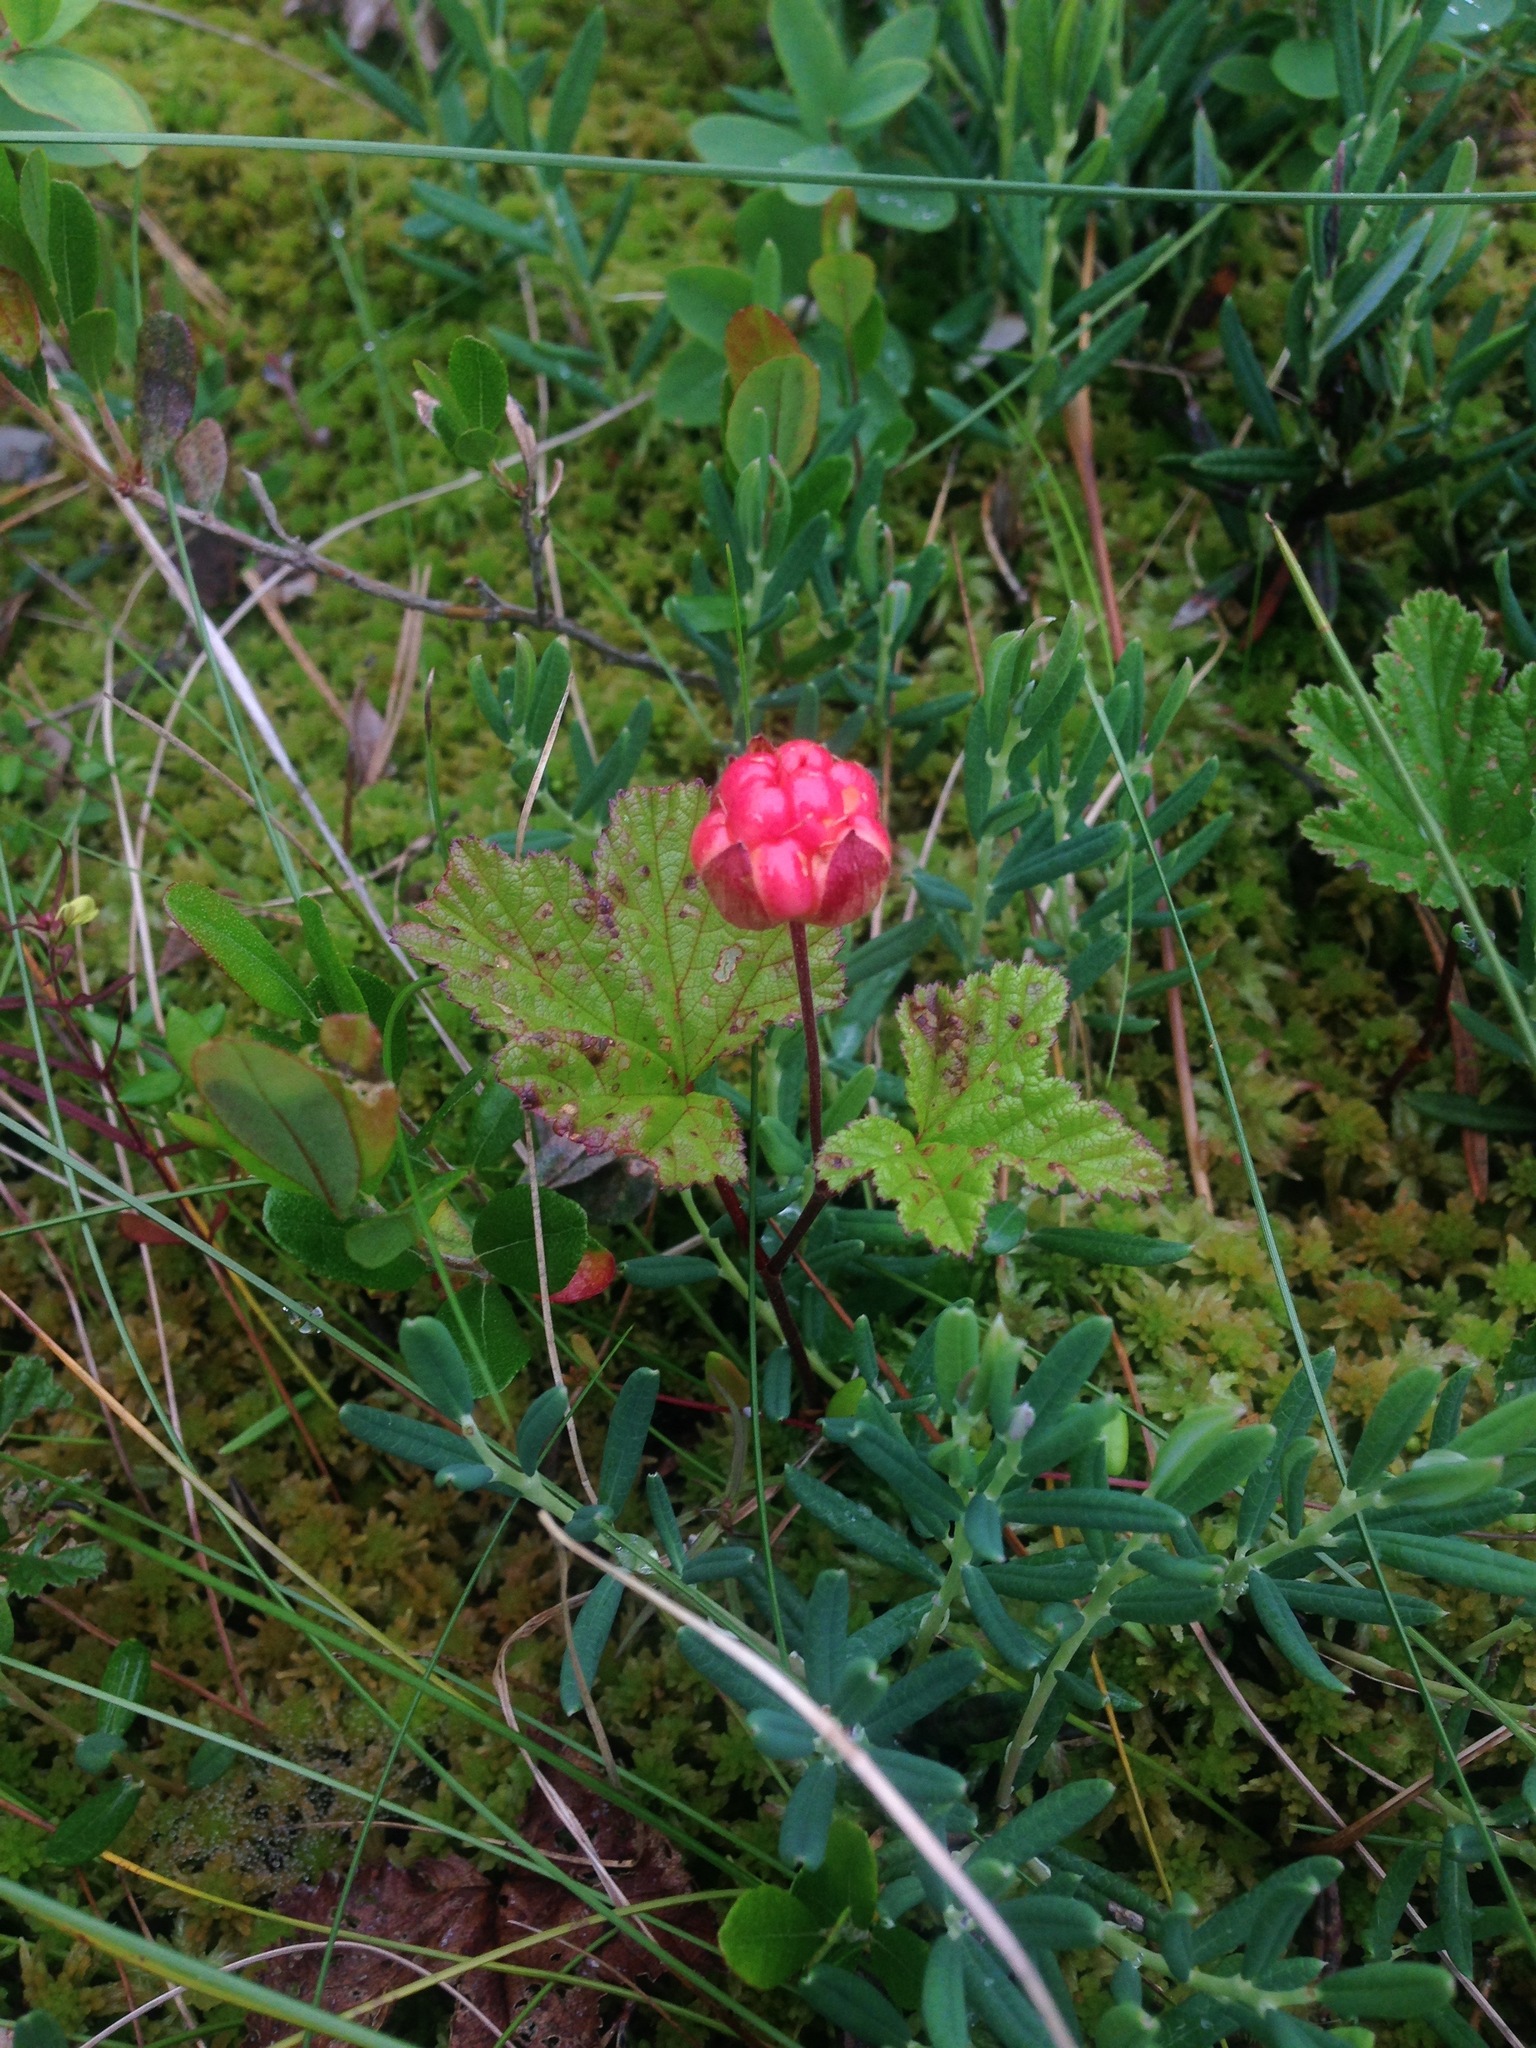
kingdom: Plantae
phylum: Tracheophyta
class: Magnoliopsida
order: Rosales
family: Rosaceae
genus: Rubus
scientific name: Rubus chamaemorus
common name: Cloudberry
